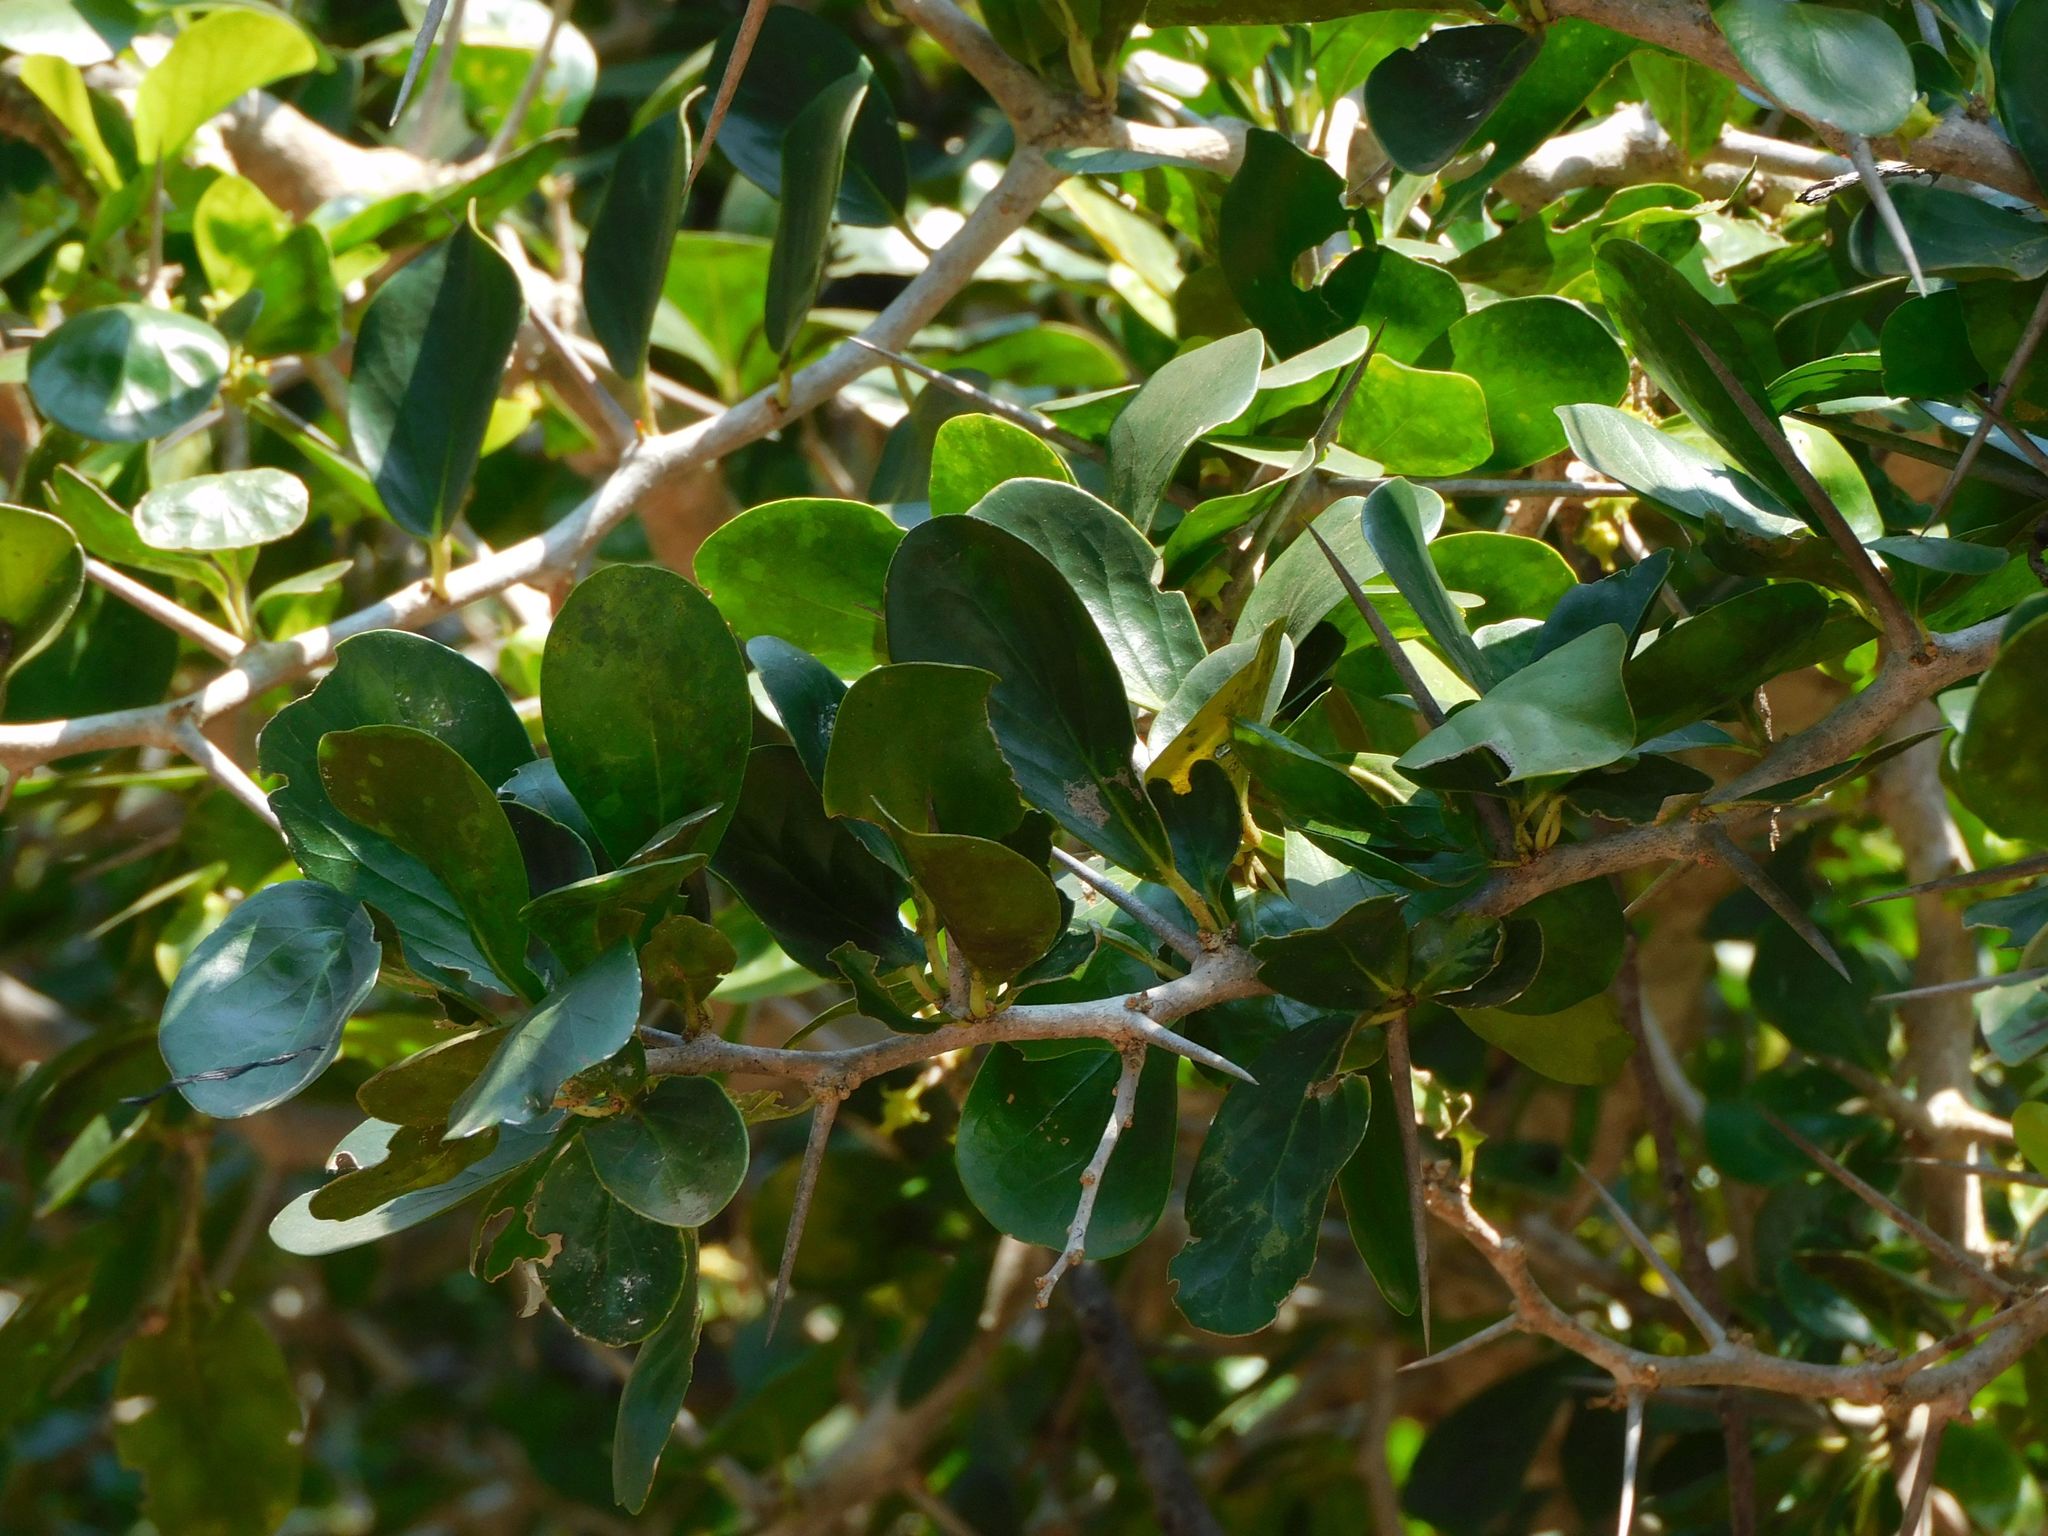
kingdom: Plantae
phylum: Tracheophyta
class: Magnoliopsida
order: Malpighiales
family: Salicaceae
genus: Dovyalis
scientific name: Dovyalis caffra
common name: Kei-apple
